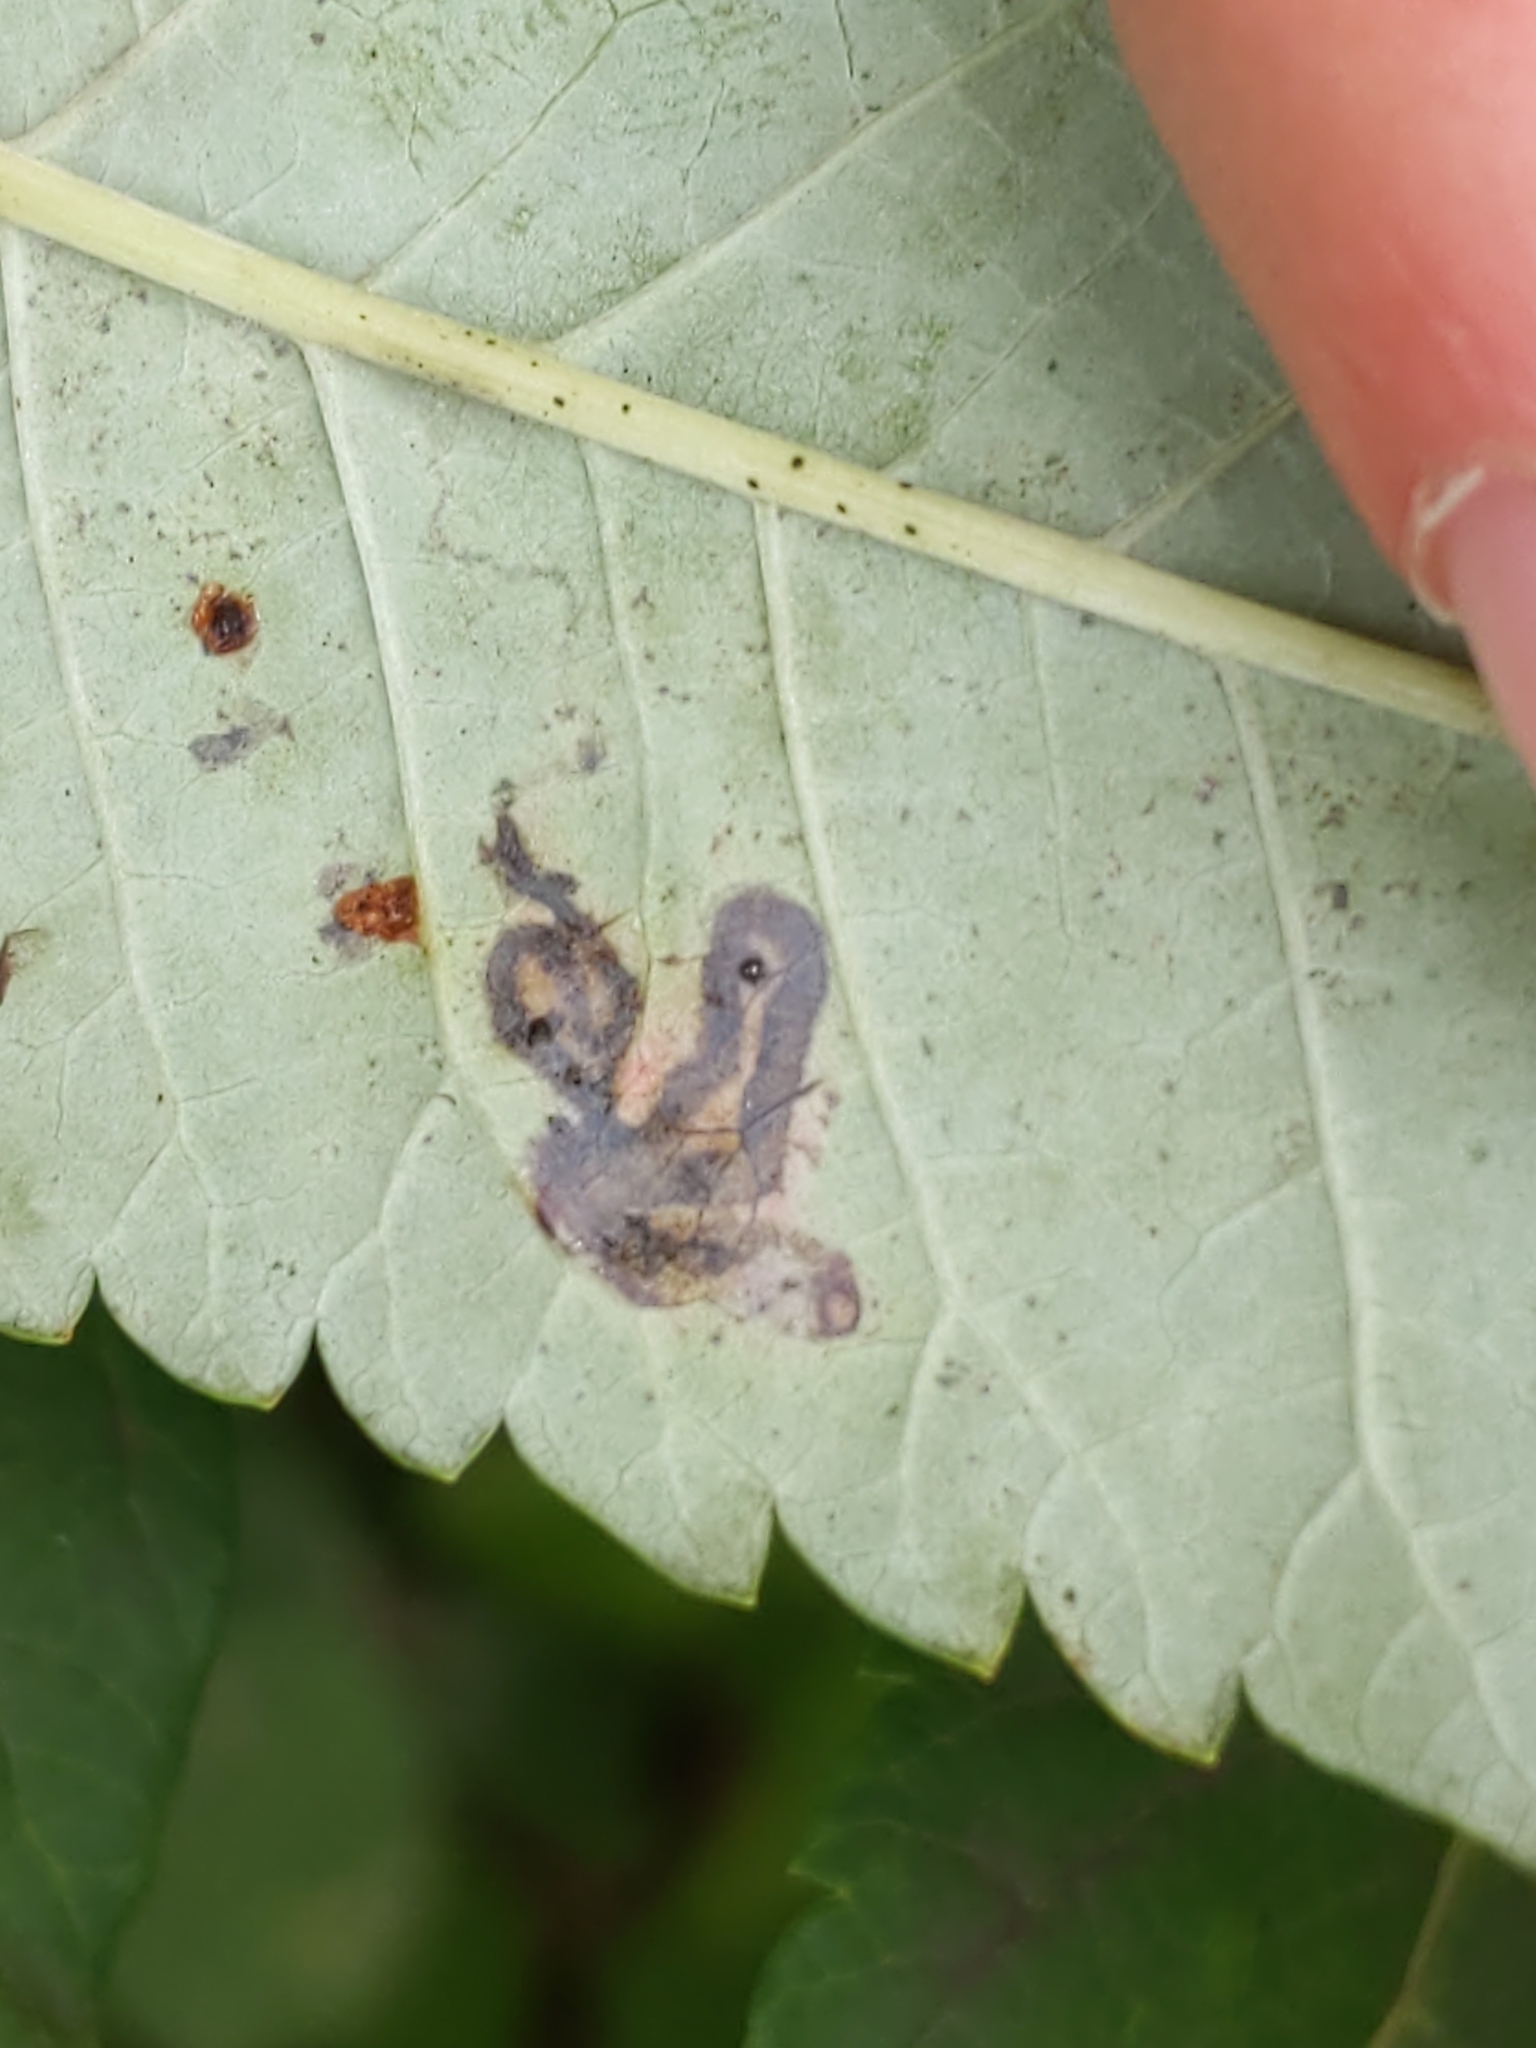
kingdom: Animalia
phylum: Arthropoda
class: Insecta
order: Lepidoptera
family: Nepticulidae
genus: Stigmella
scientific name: Stigmella intermedia
